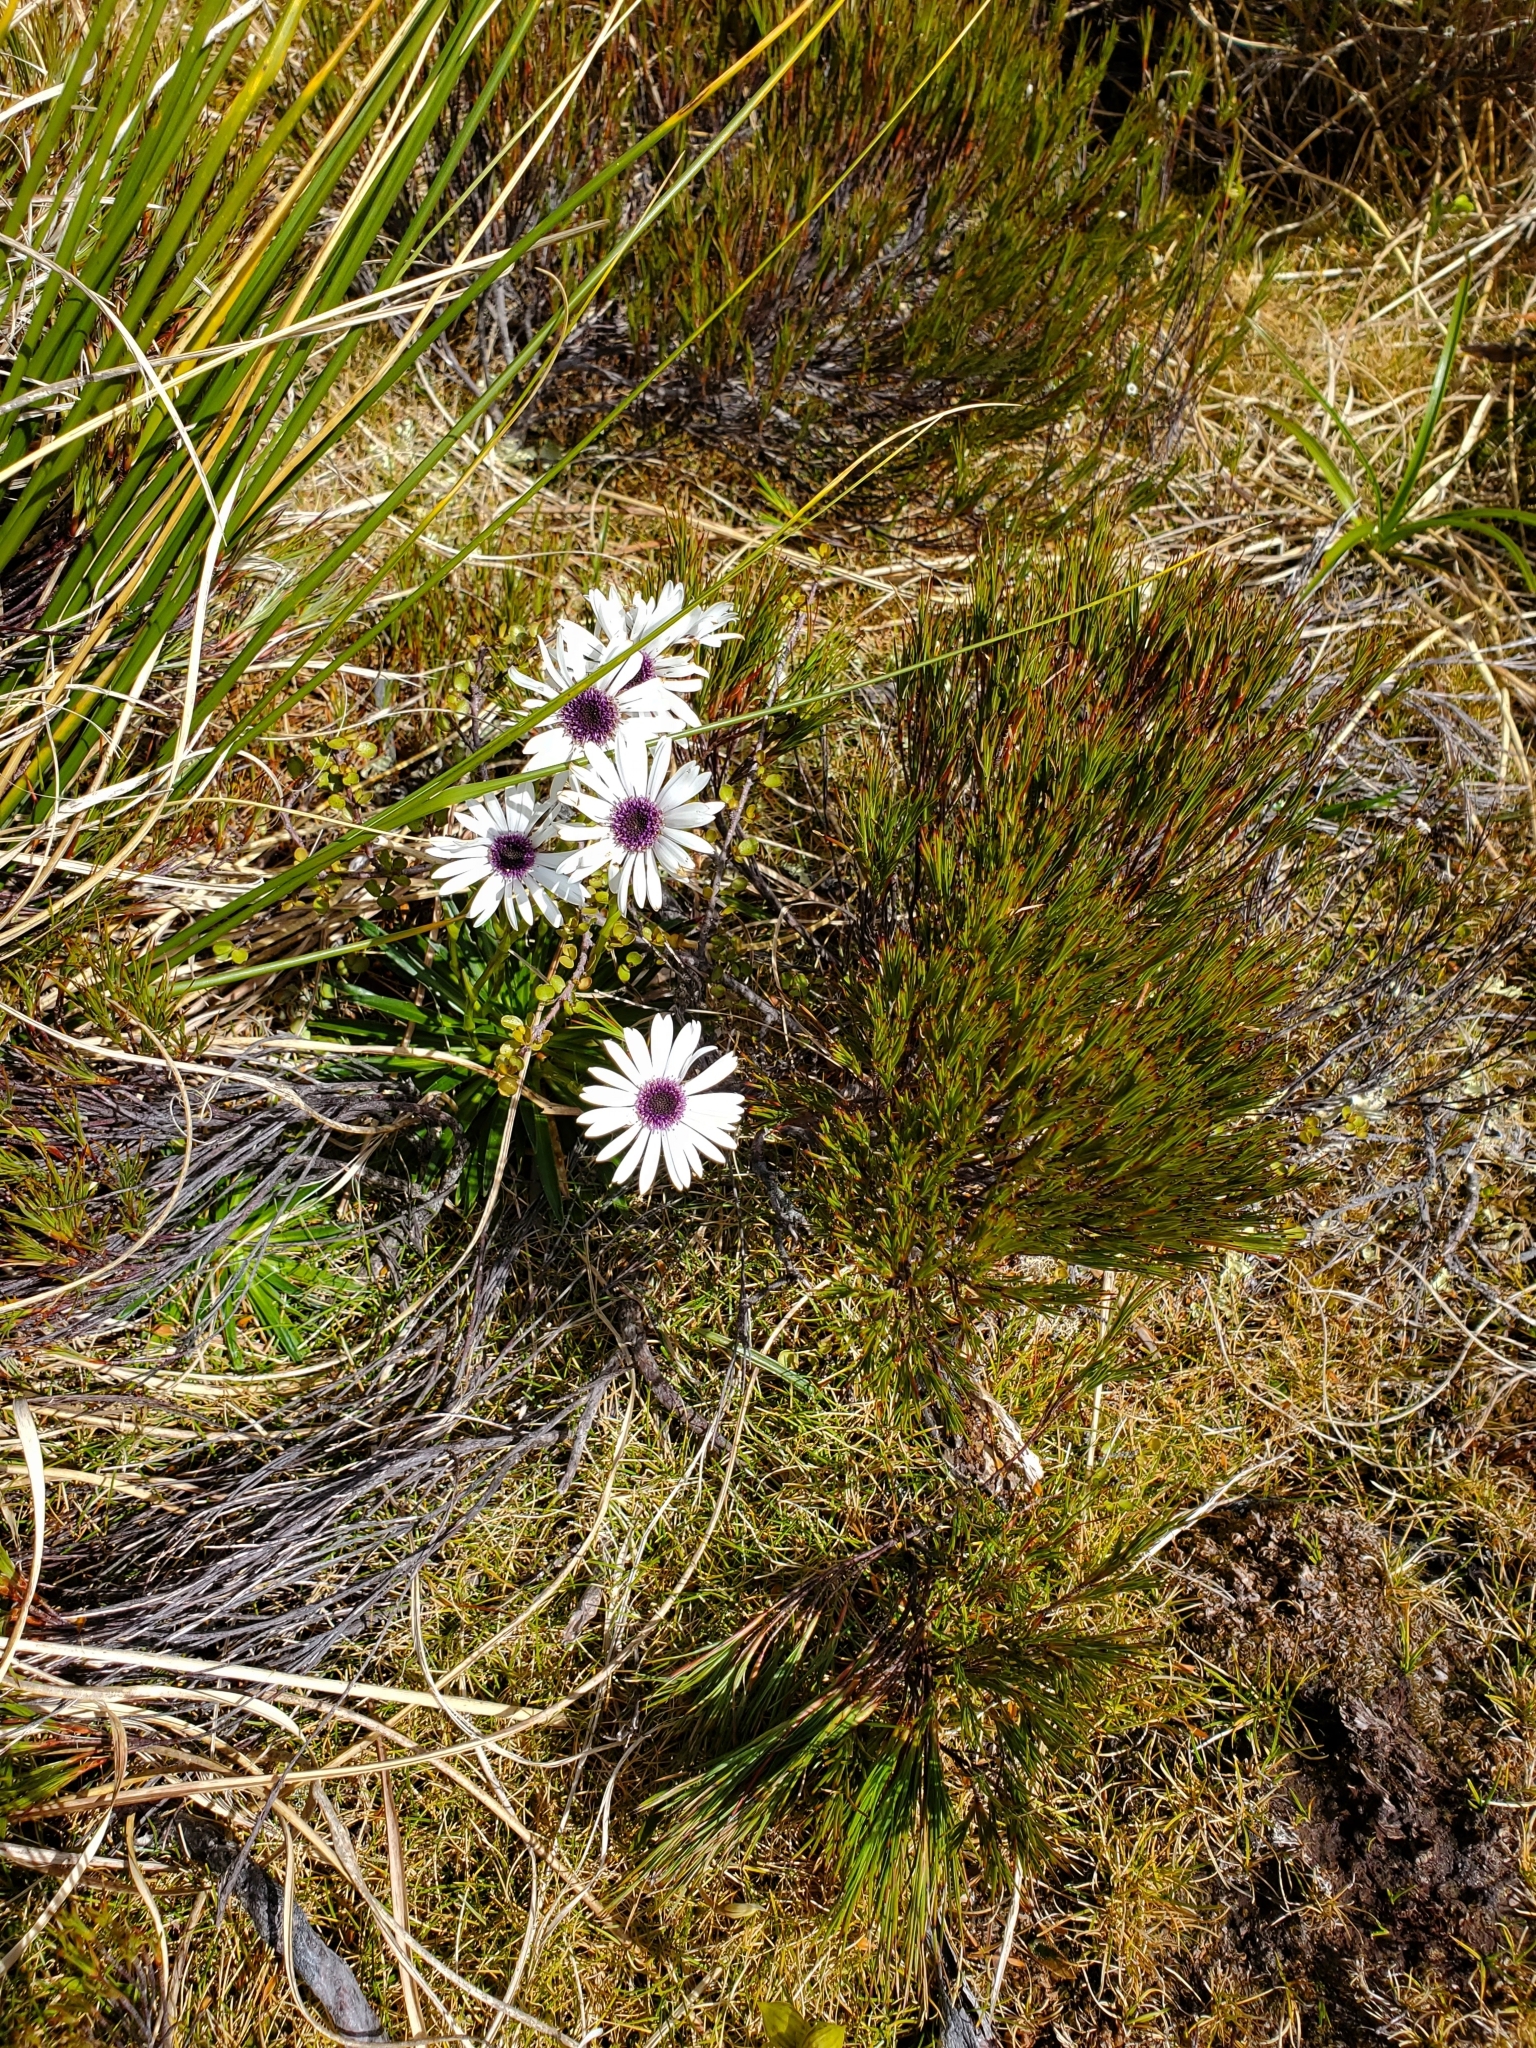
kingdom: Plantae
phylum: Tracheophyta
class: Magnoliopsida
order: Asterales
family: Asteraceae
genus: Damnamenia
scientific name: Damnamenia vernicosa
